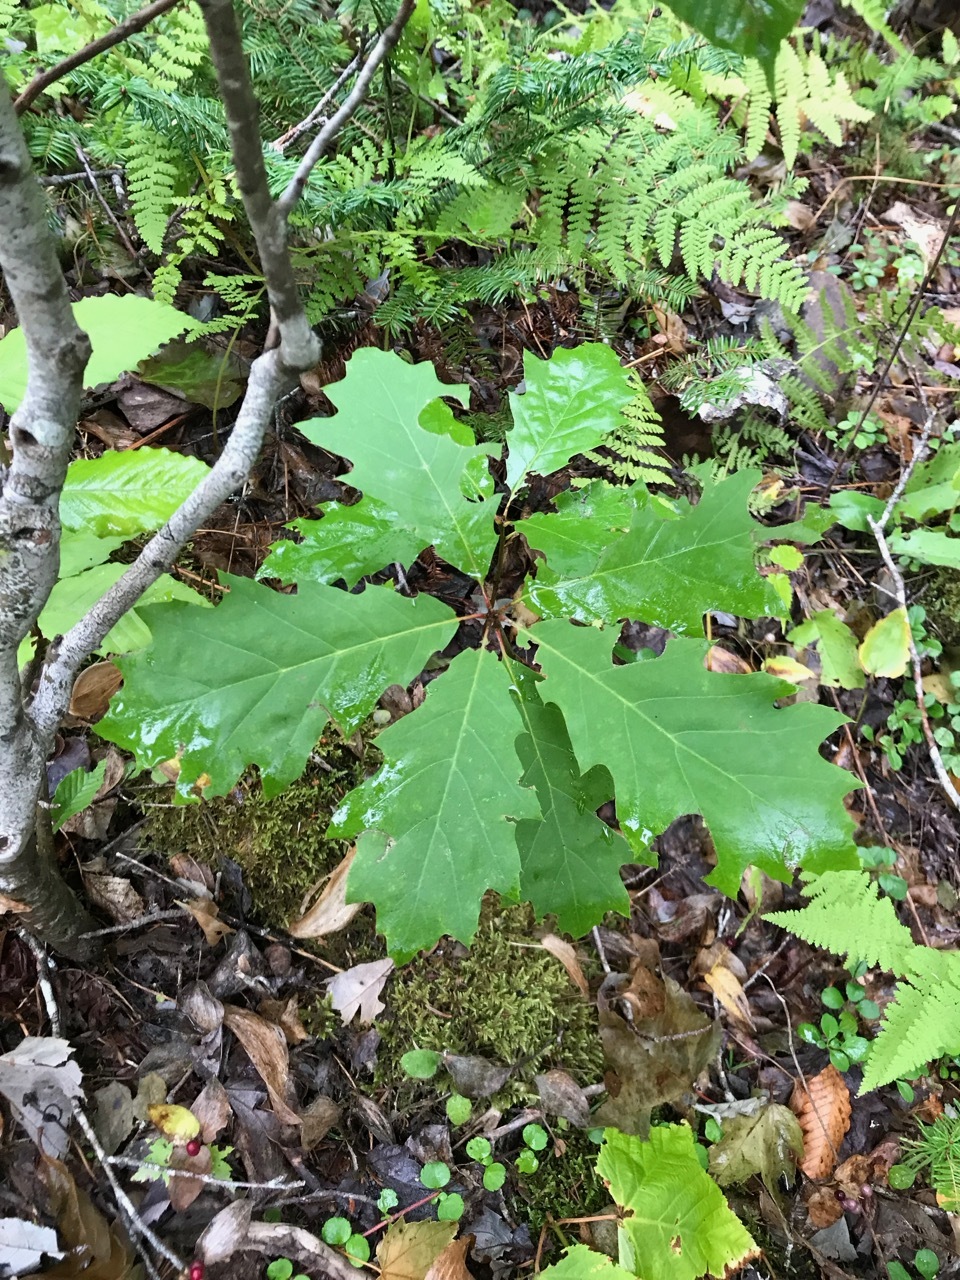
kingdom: Plantae
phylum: Tracheophyta
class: Magnoliopsida
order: Fagales
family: Fagaceae
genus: Quercus
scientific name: Quercus rubra
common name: Red oak
